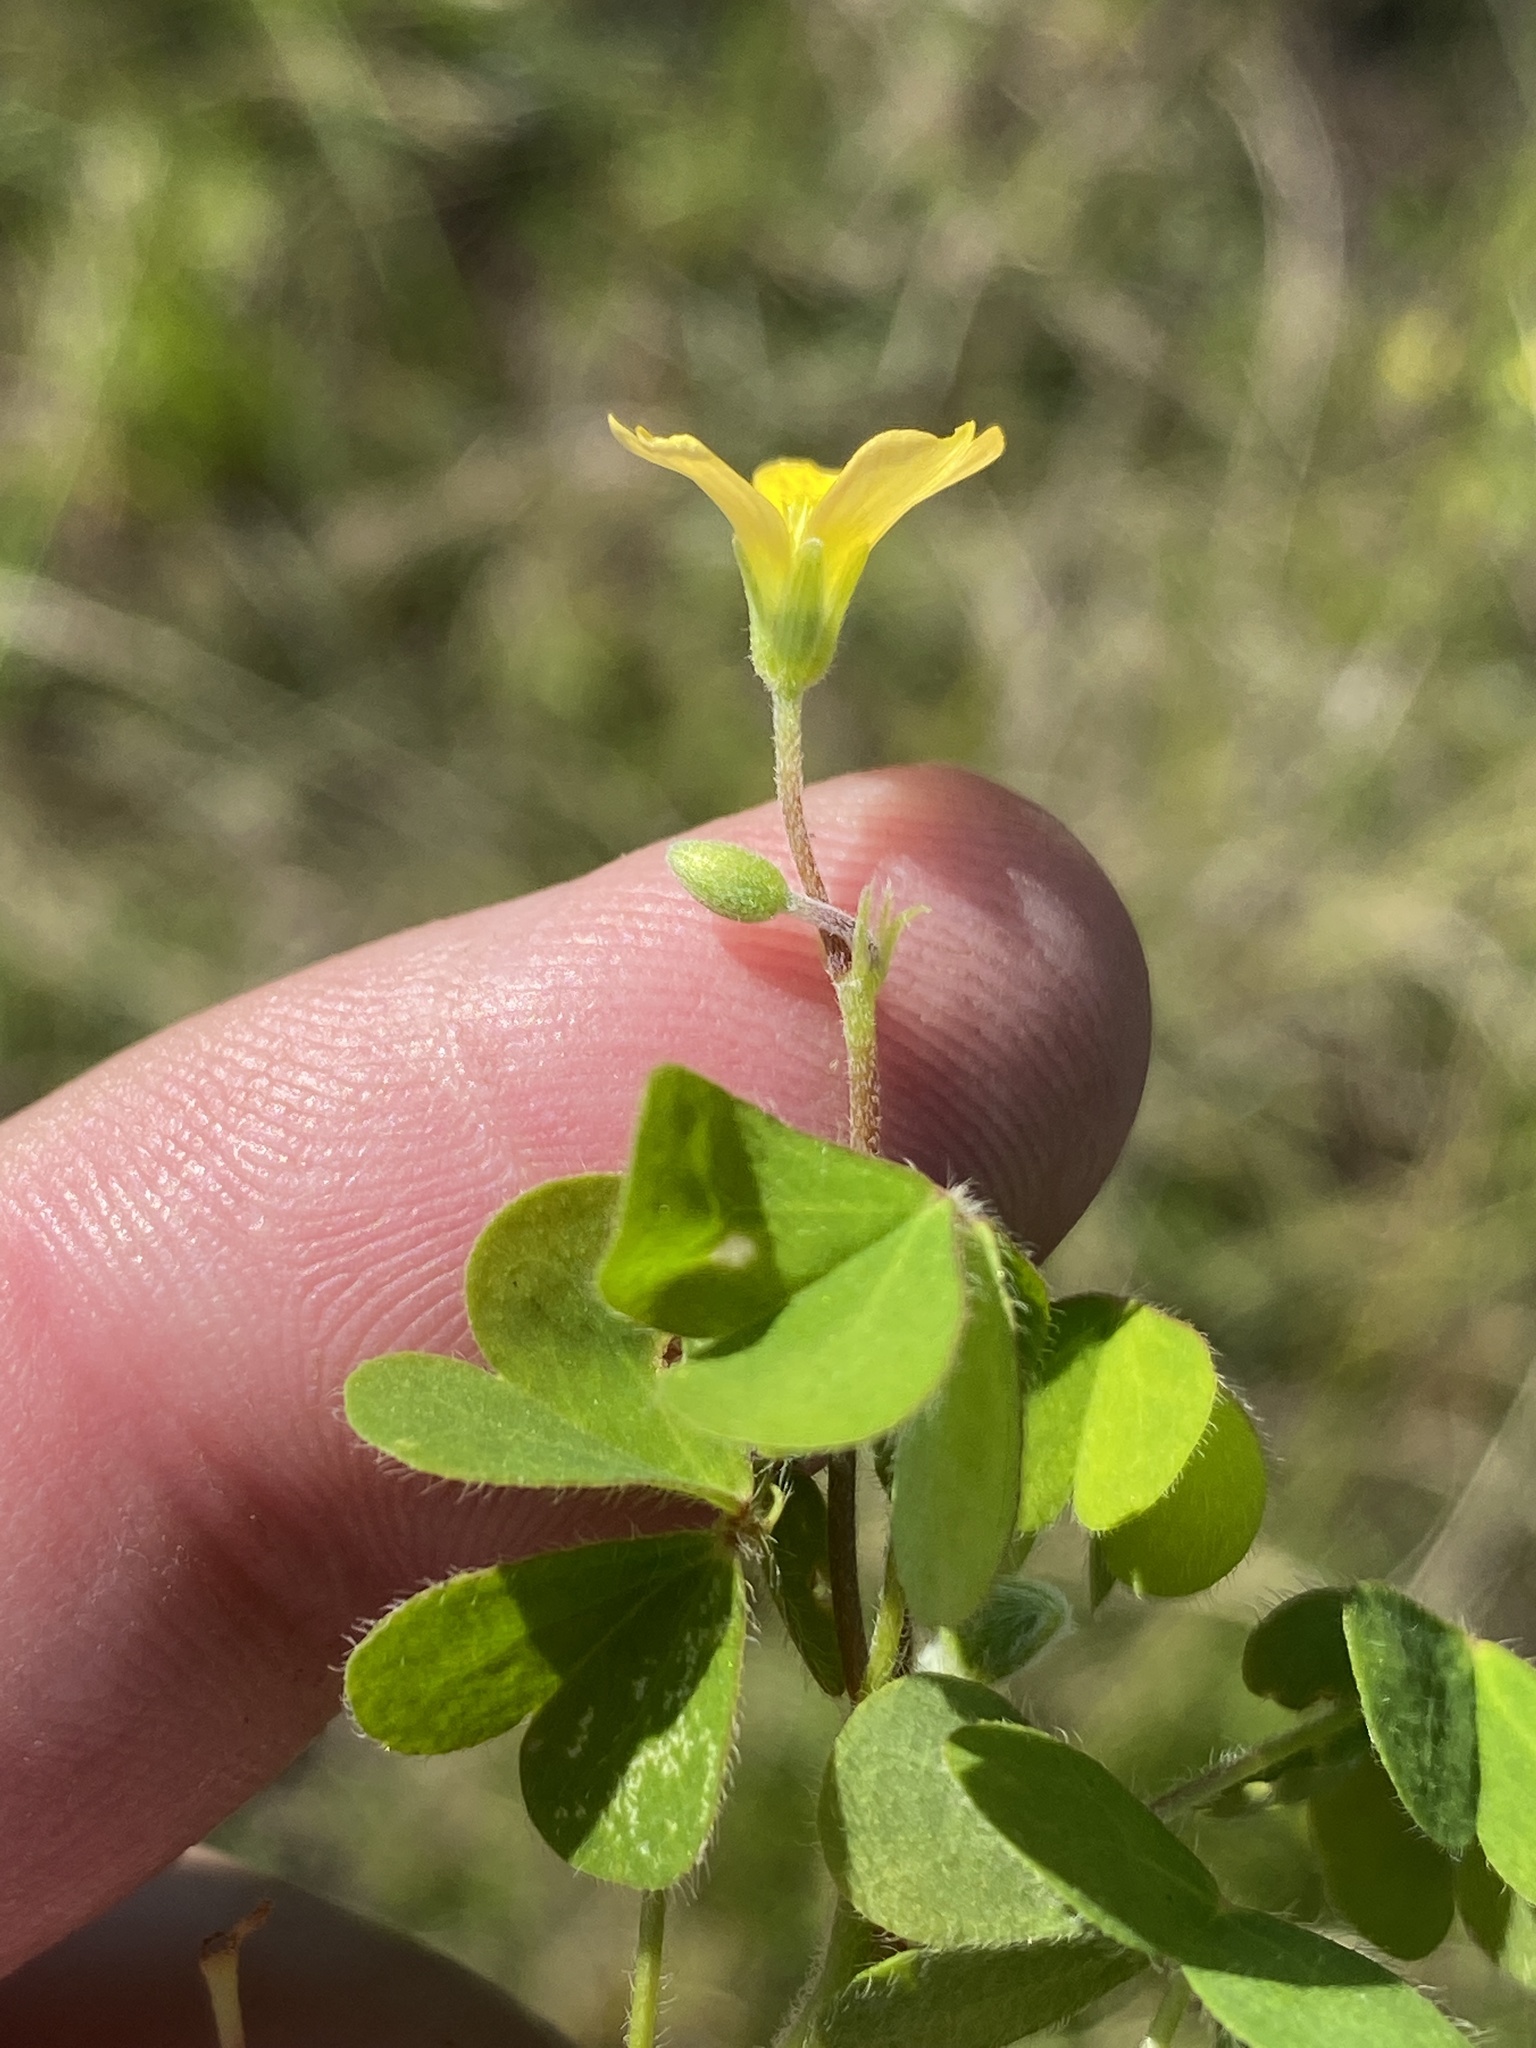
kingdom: Plantae
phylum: Tracheophyta
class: Magnoliopsida
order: Oxalidales
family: Oxalidaceae
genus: Oxalis
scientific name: Oxalis corniculata
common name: Procumbent yellow-sorrel
